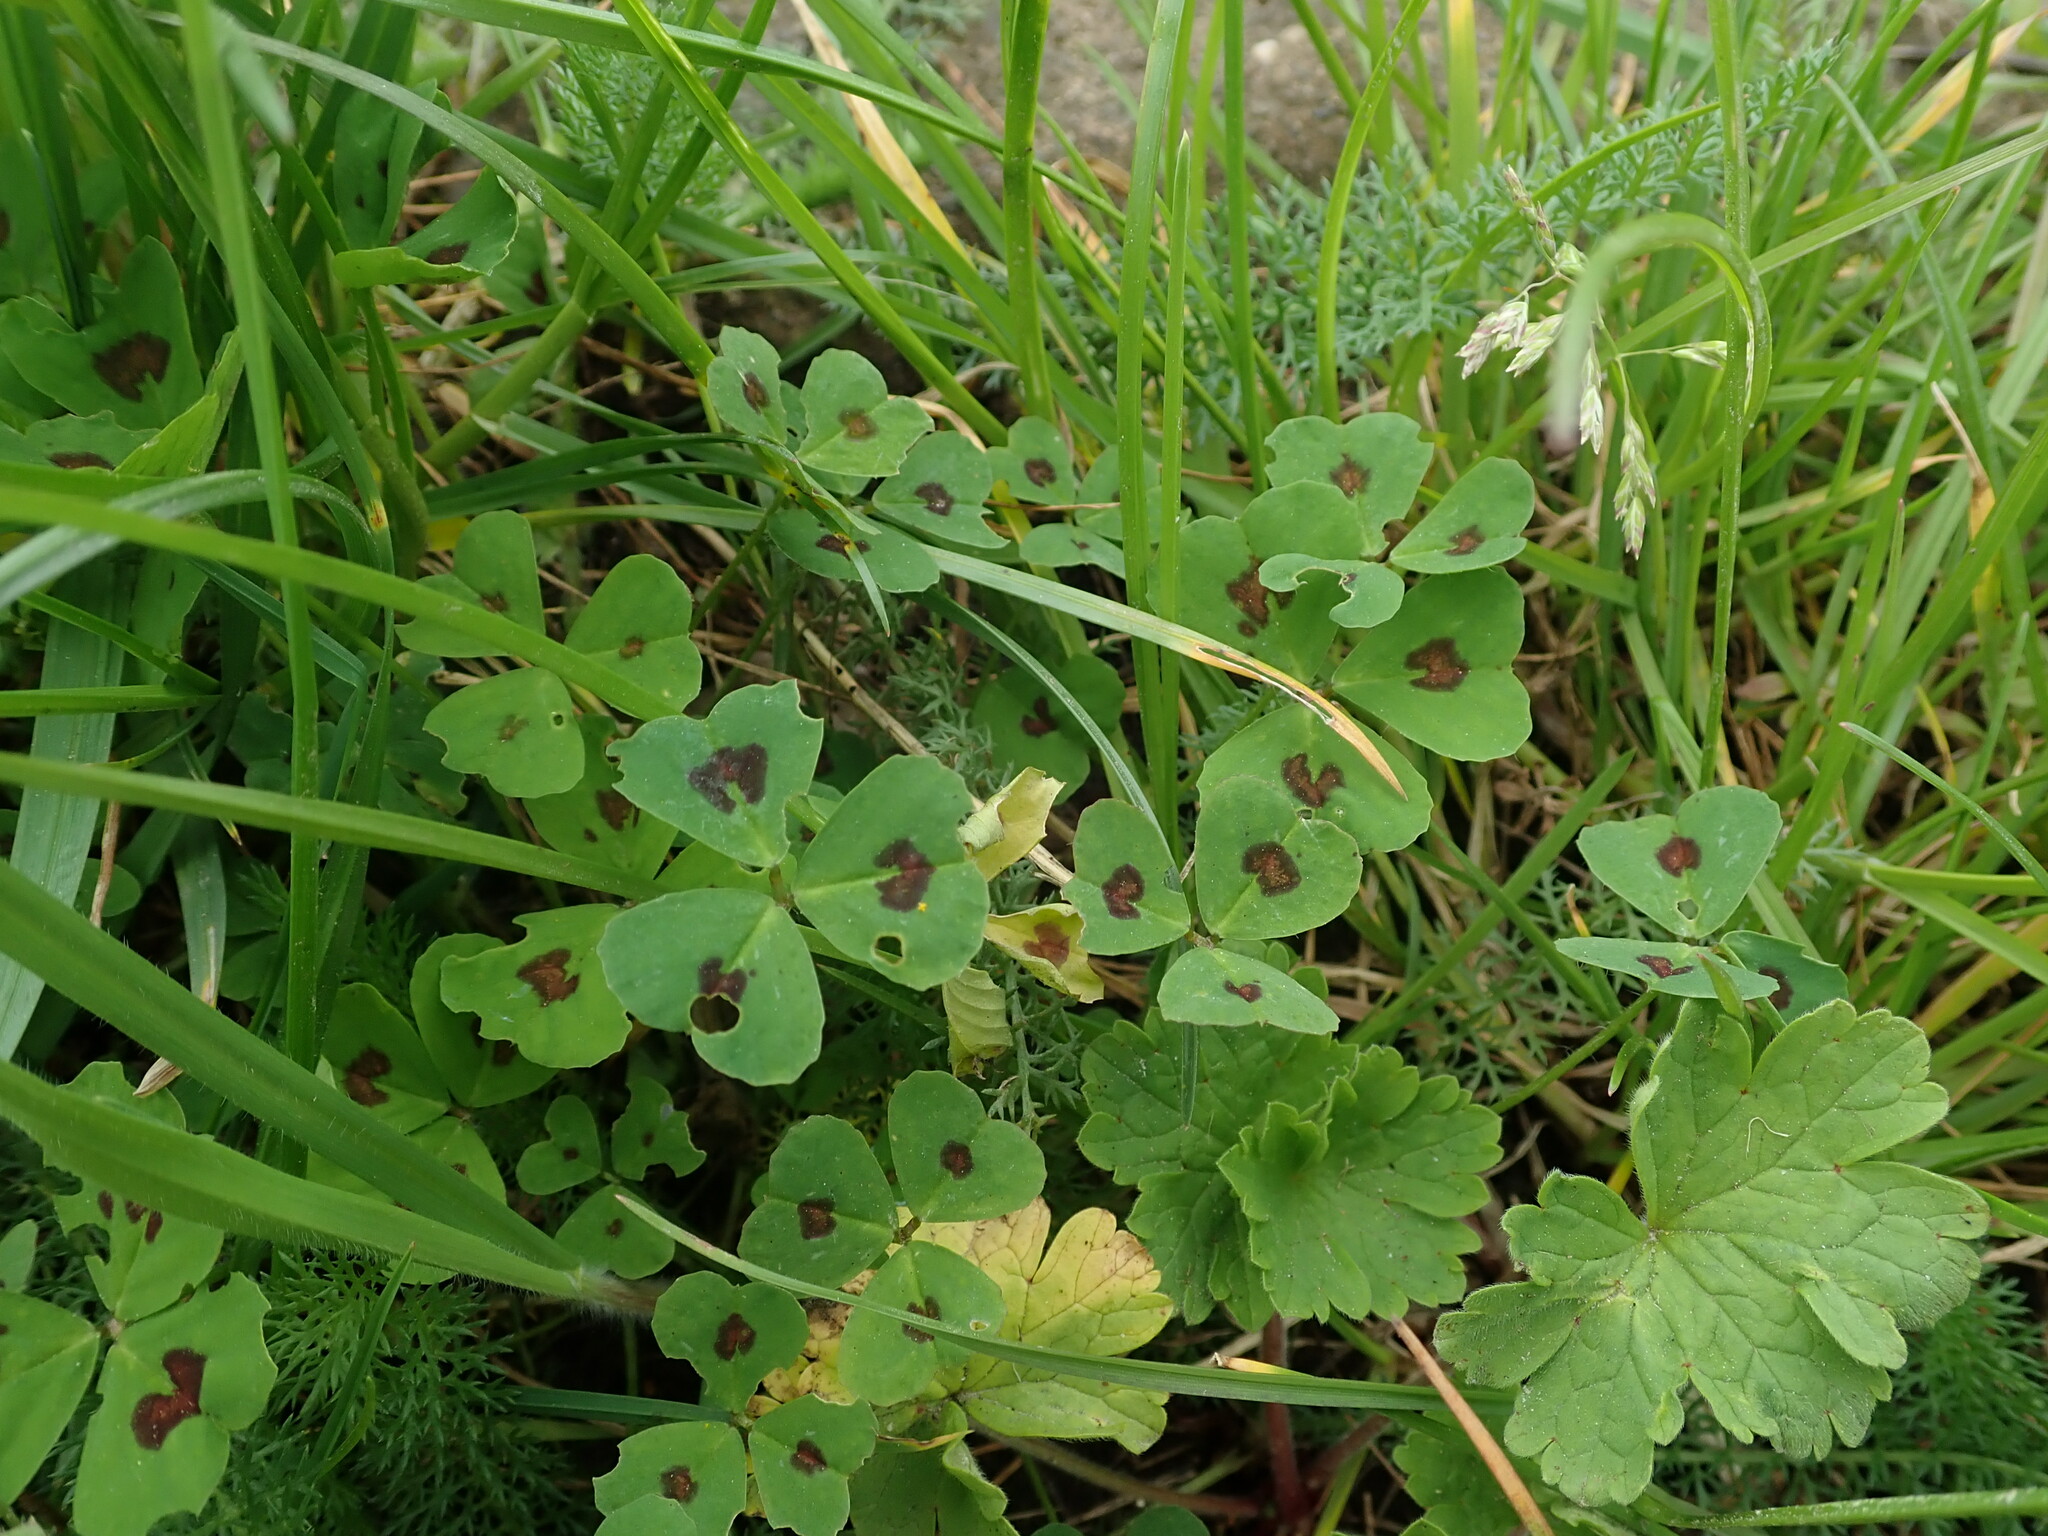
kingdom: Plantae
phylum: Tracheophyta
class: Magnoliopsida
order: Fabales
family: Fabaceae
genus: Medicago
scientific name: Medicago arabica
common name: Spotted medick
